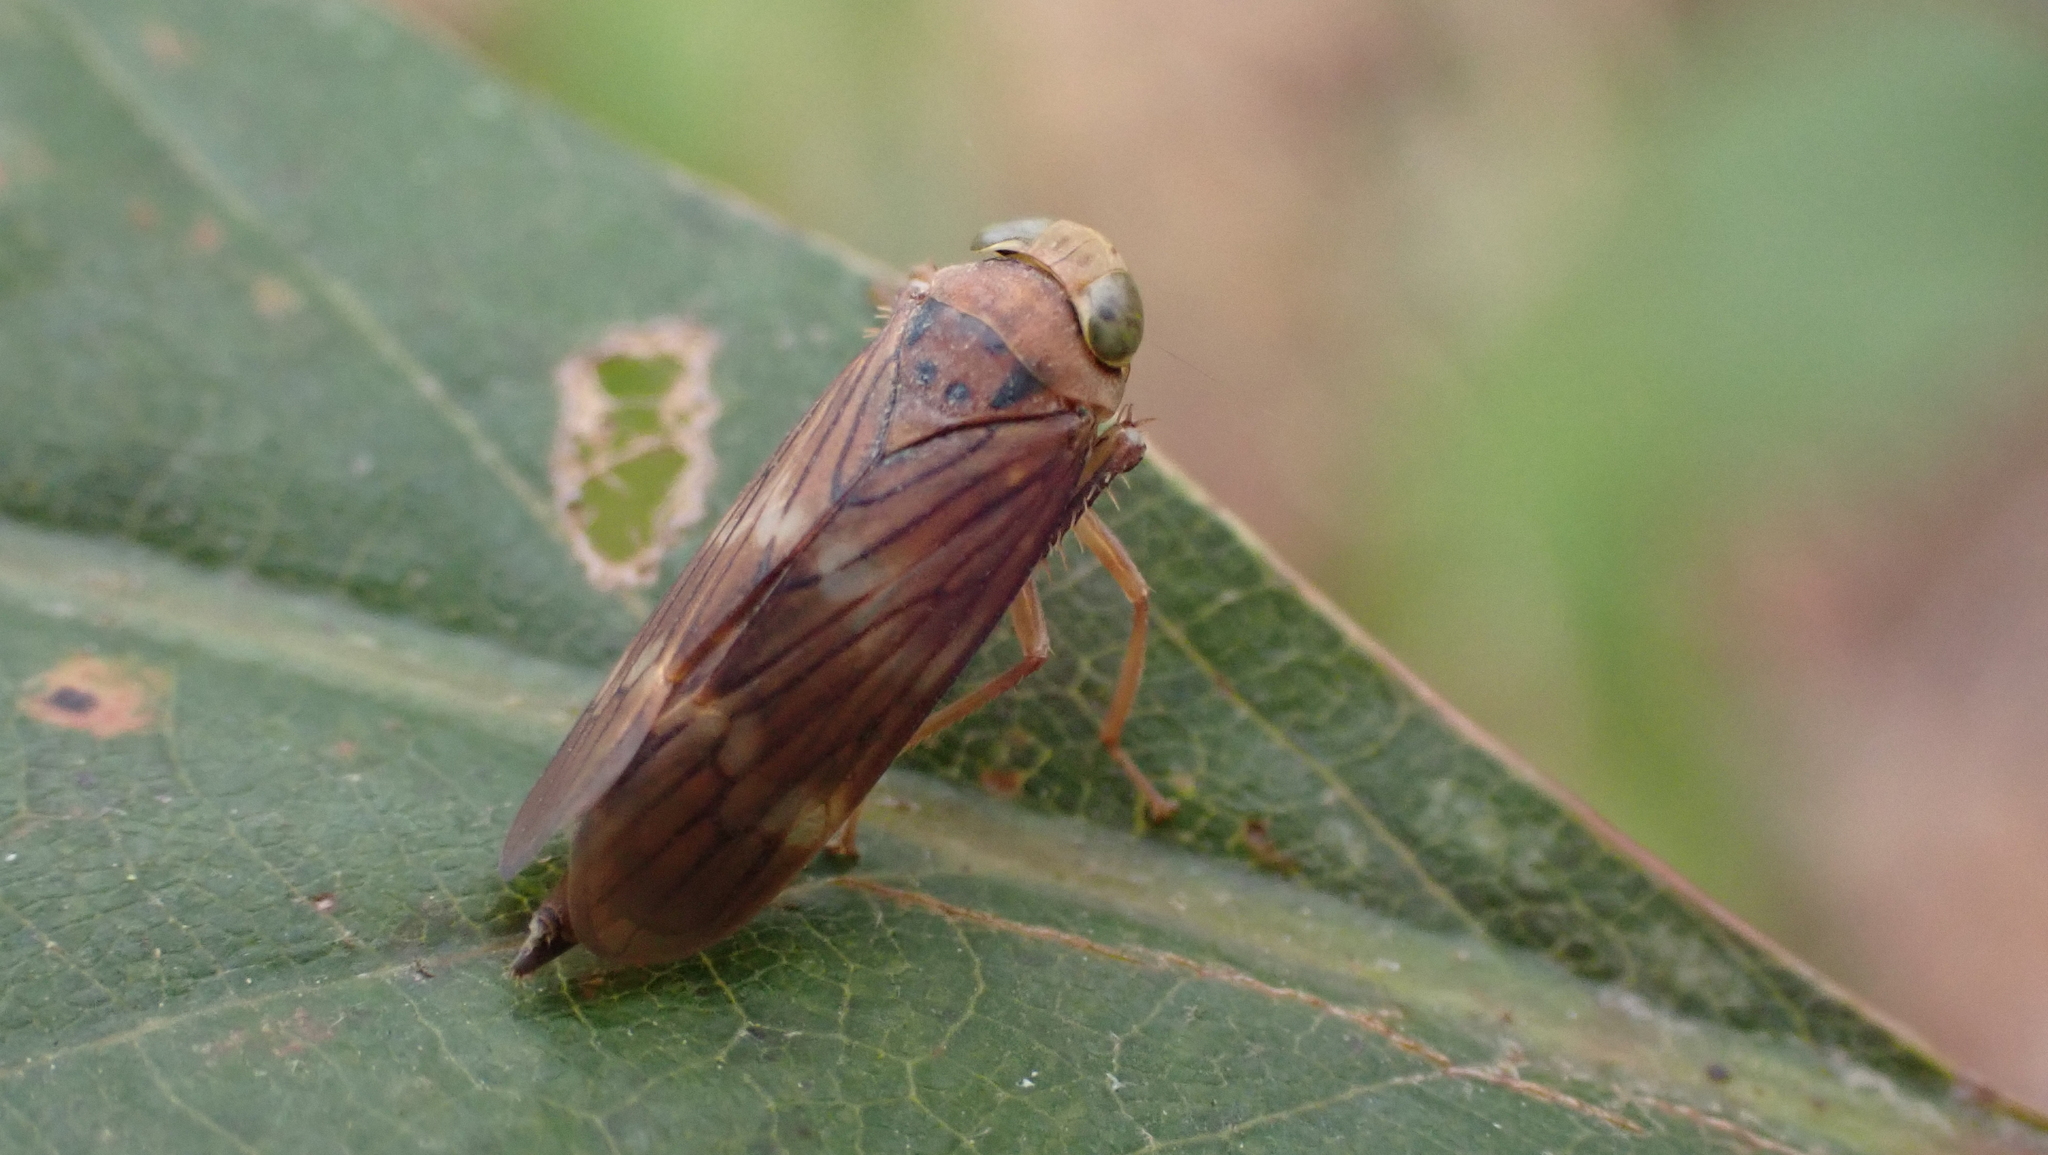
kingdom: Animalia
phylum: Arthropoda
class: Insecta
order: Hemiptera
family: Cicadellidae
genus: Jikradia
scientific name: Jikradia olitoria
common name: Coppery leafhopper
